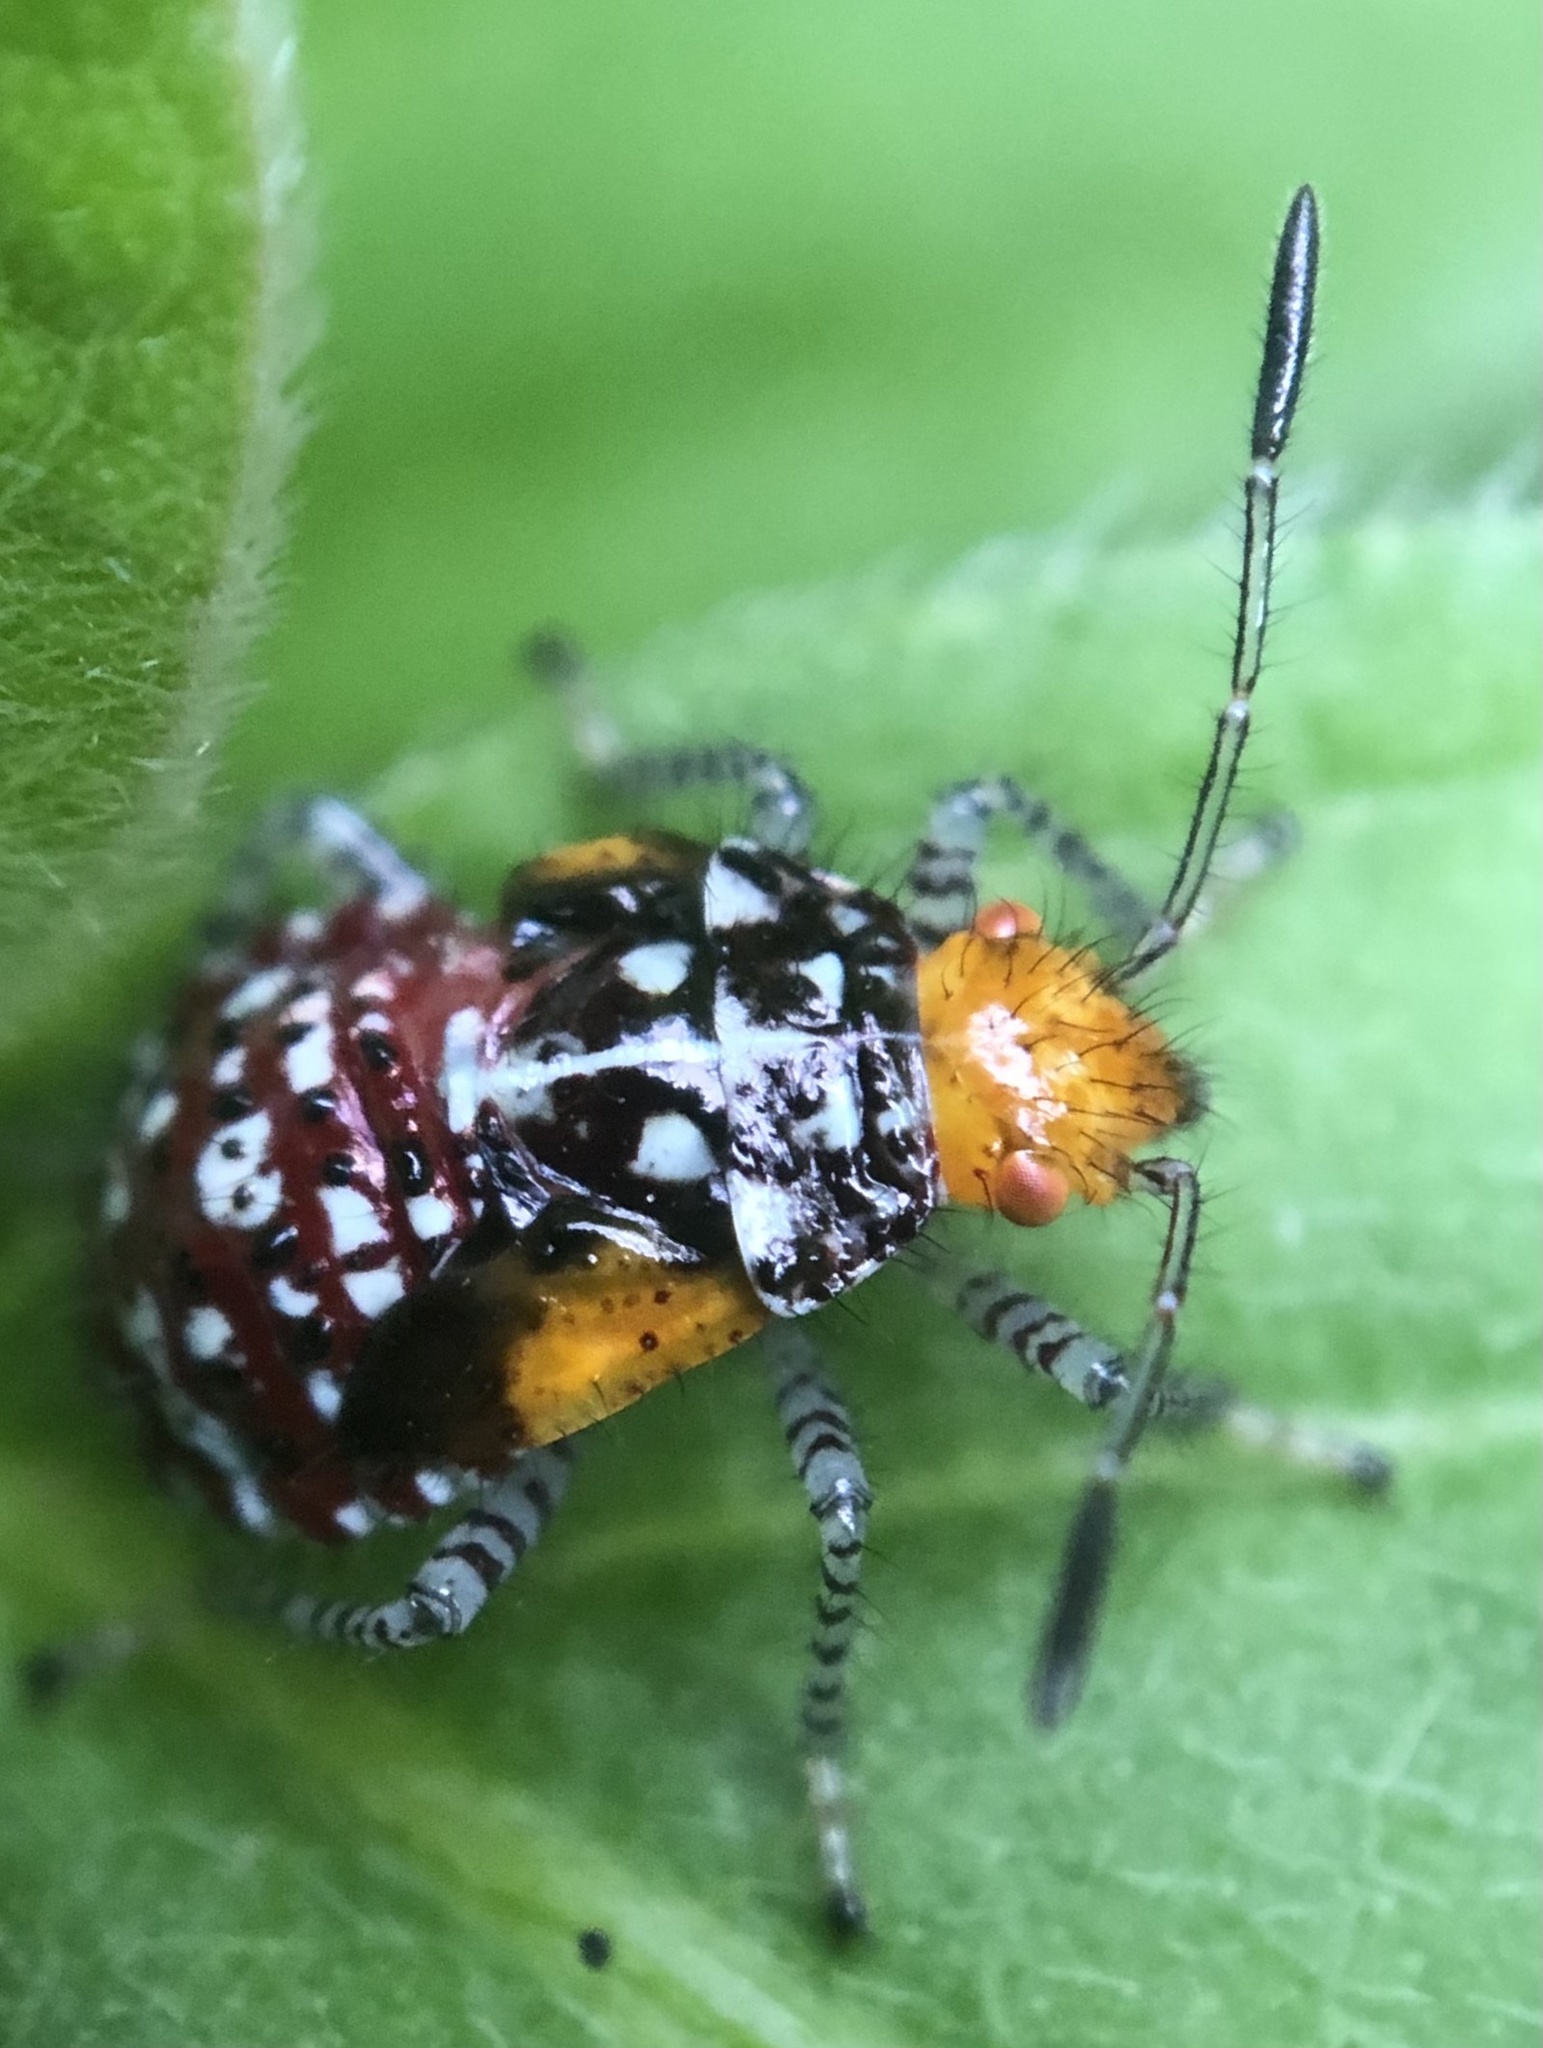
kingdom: Animalia
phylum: Arthropoda
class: Insecta
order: Hemiptera
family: Rhopalidae
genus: Niesthrea
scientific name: Niesthrea louisianica
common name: Scentless plant bug
